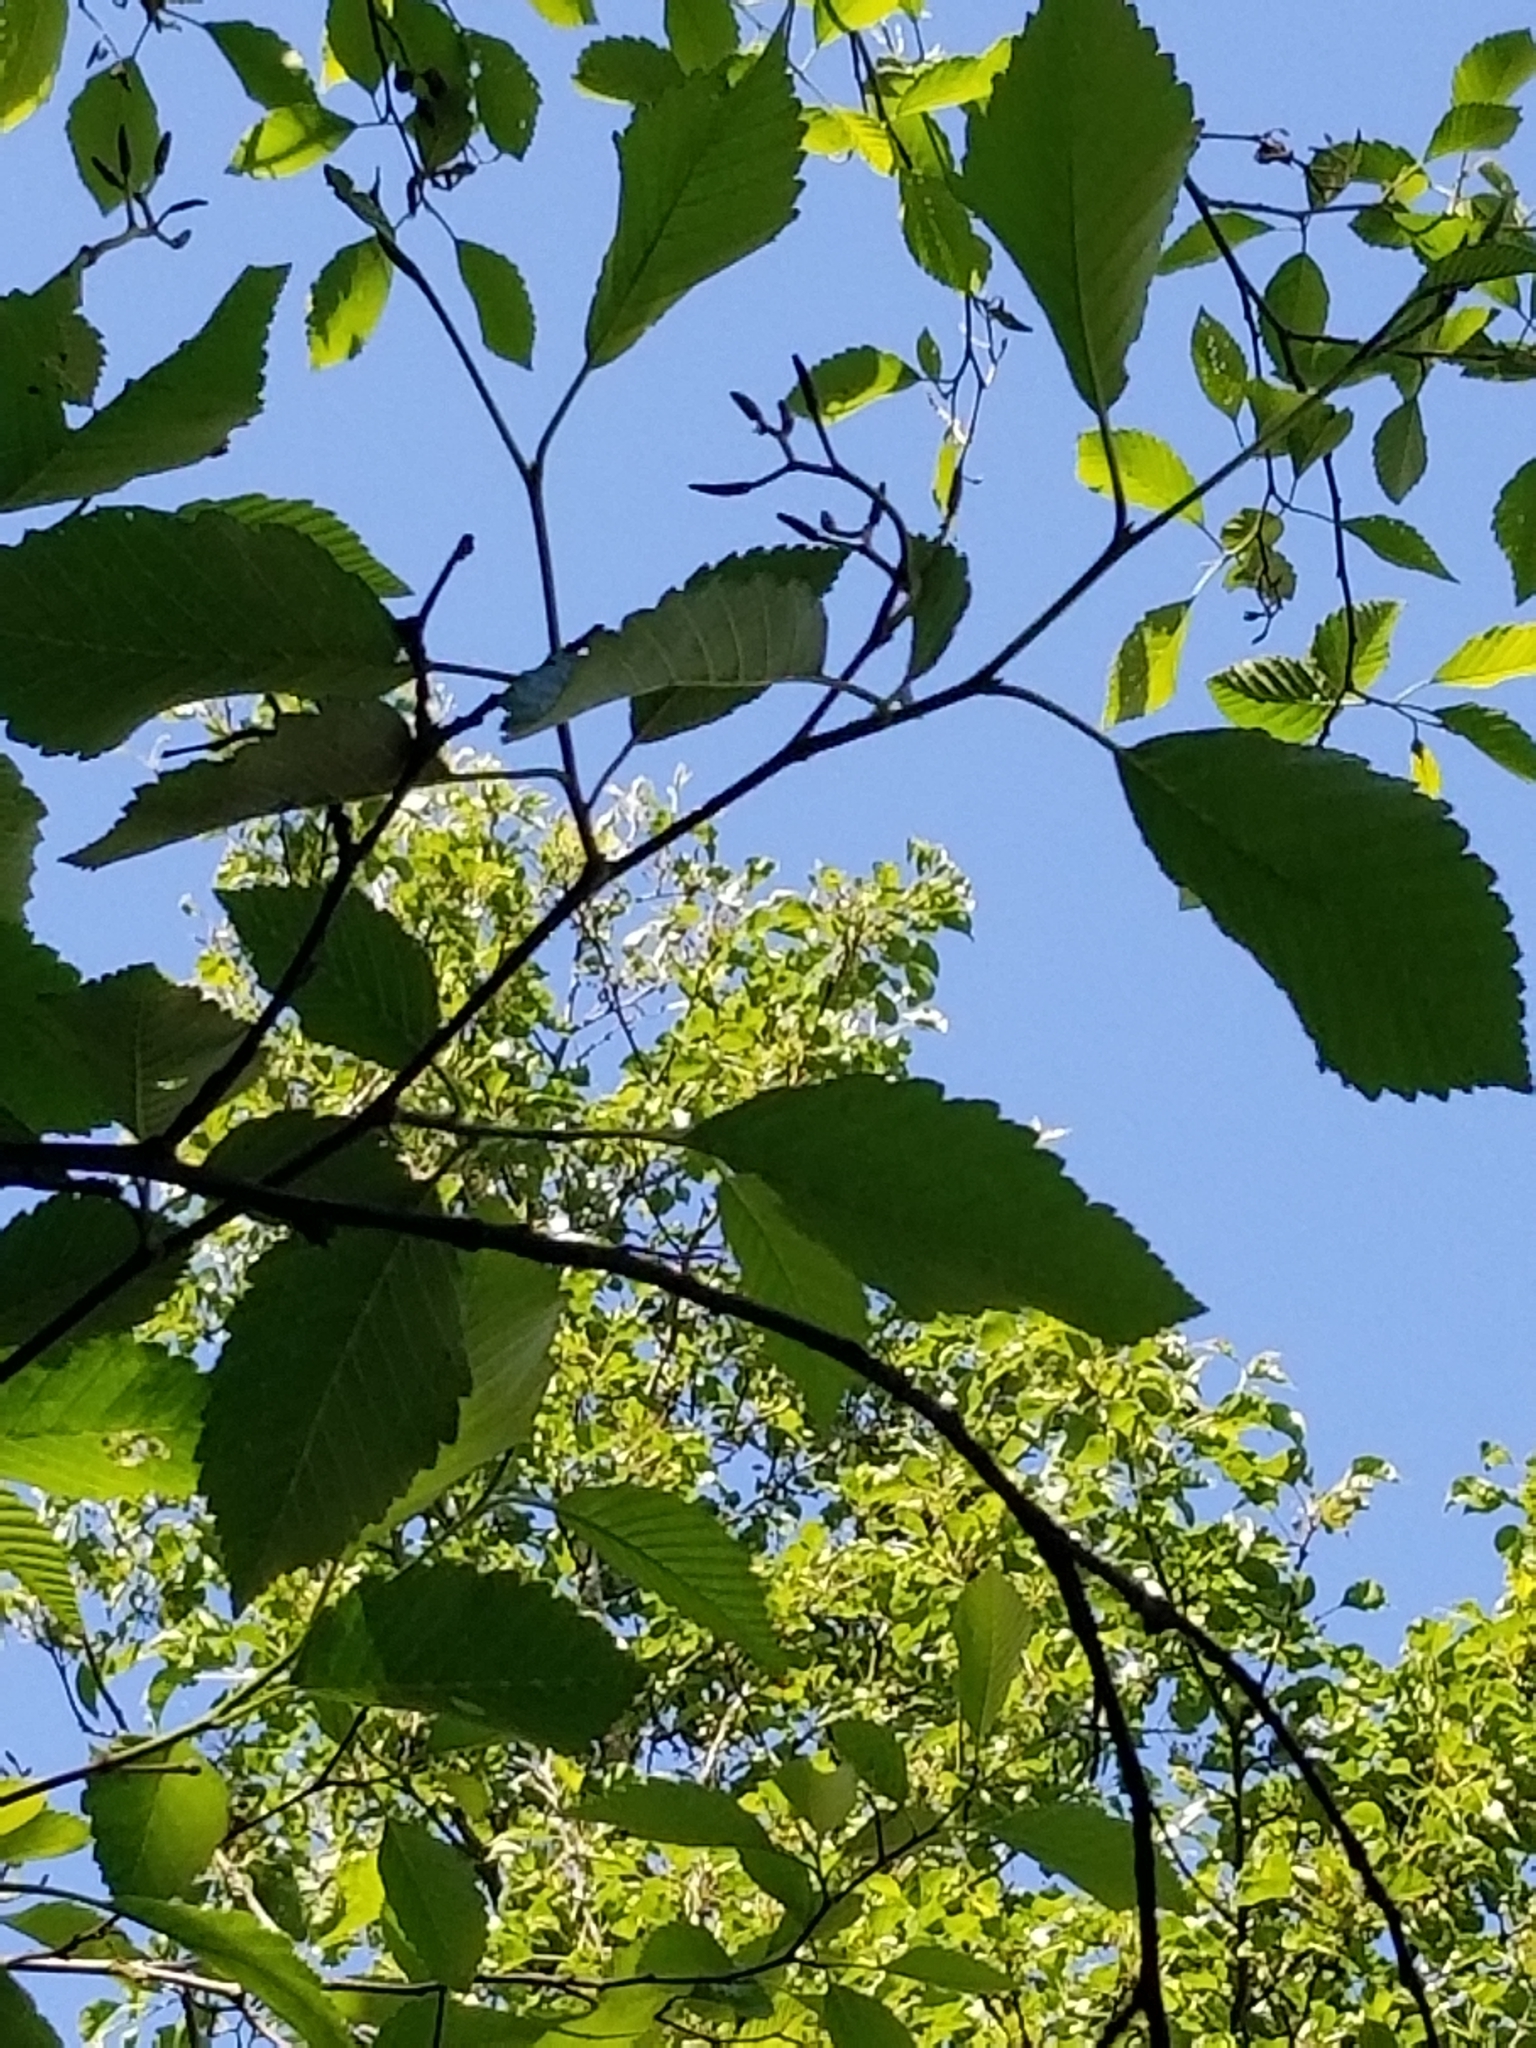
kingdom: Plantae
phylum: Tracheophyta
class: Magnoliopsida
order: Fagales
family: Betulaceae
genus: Alnus
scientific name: Alnus rubra
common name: Red alder
